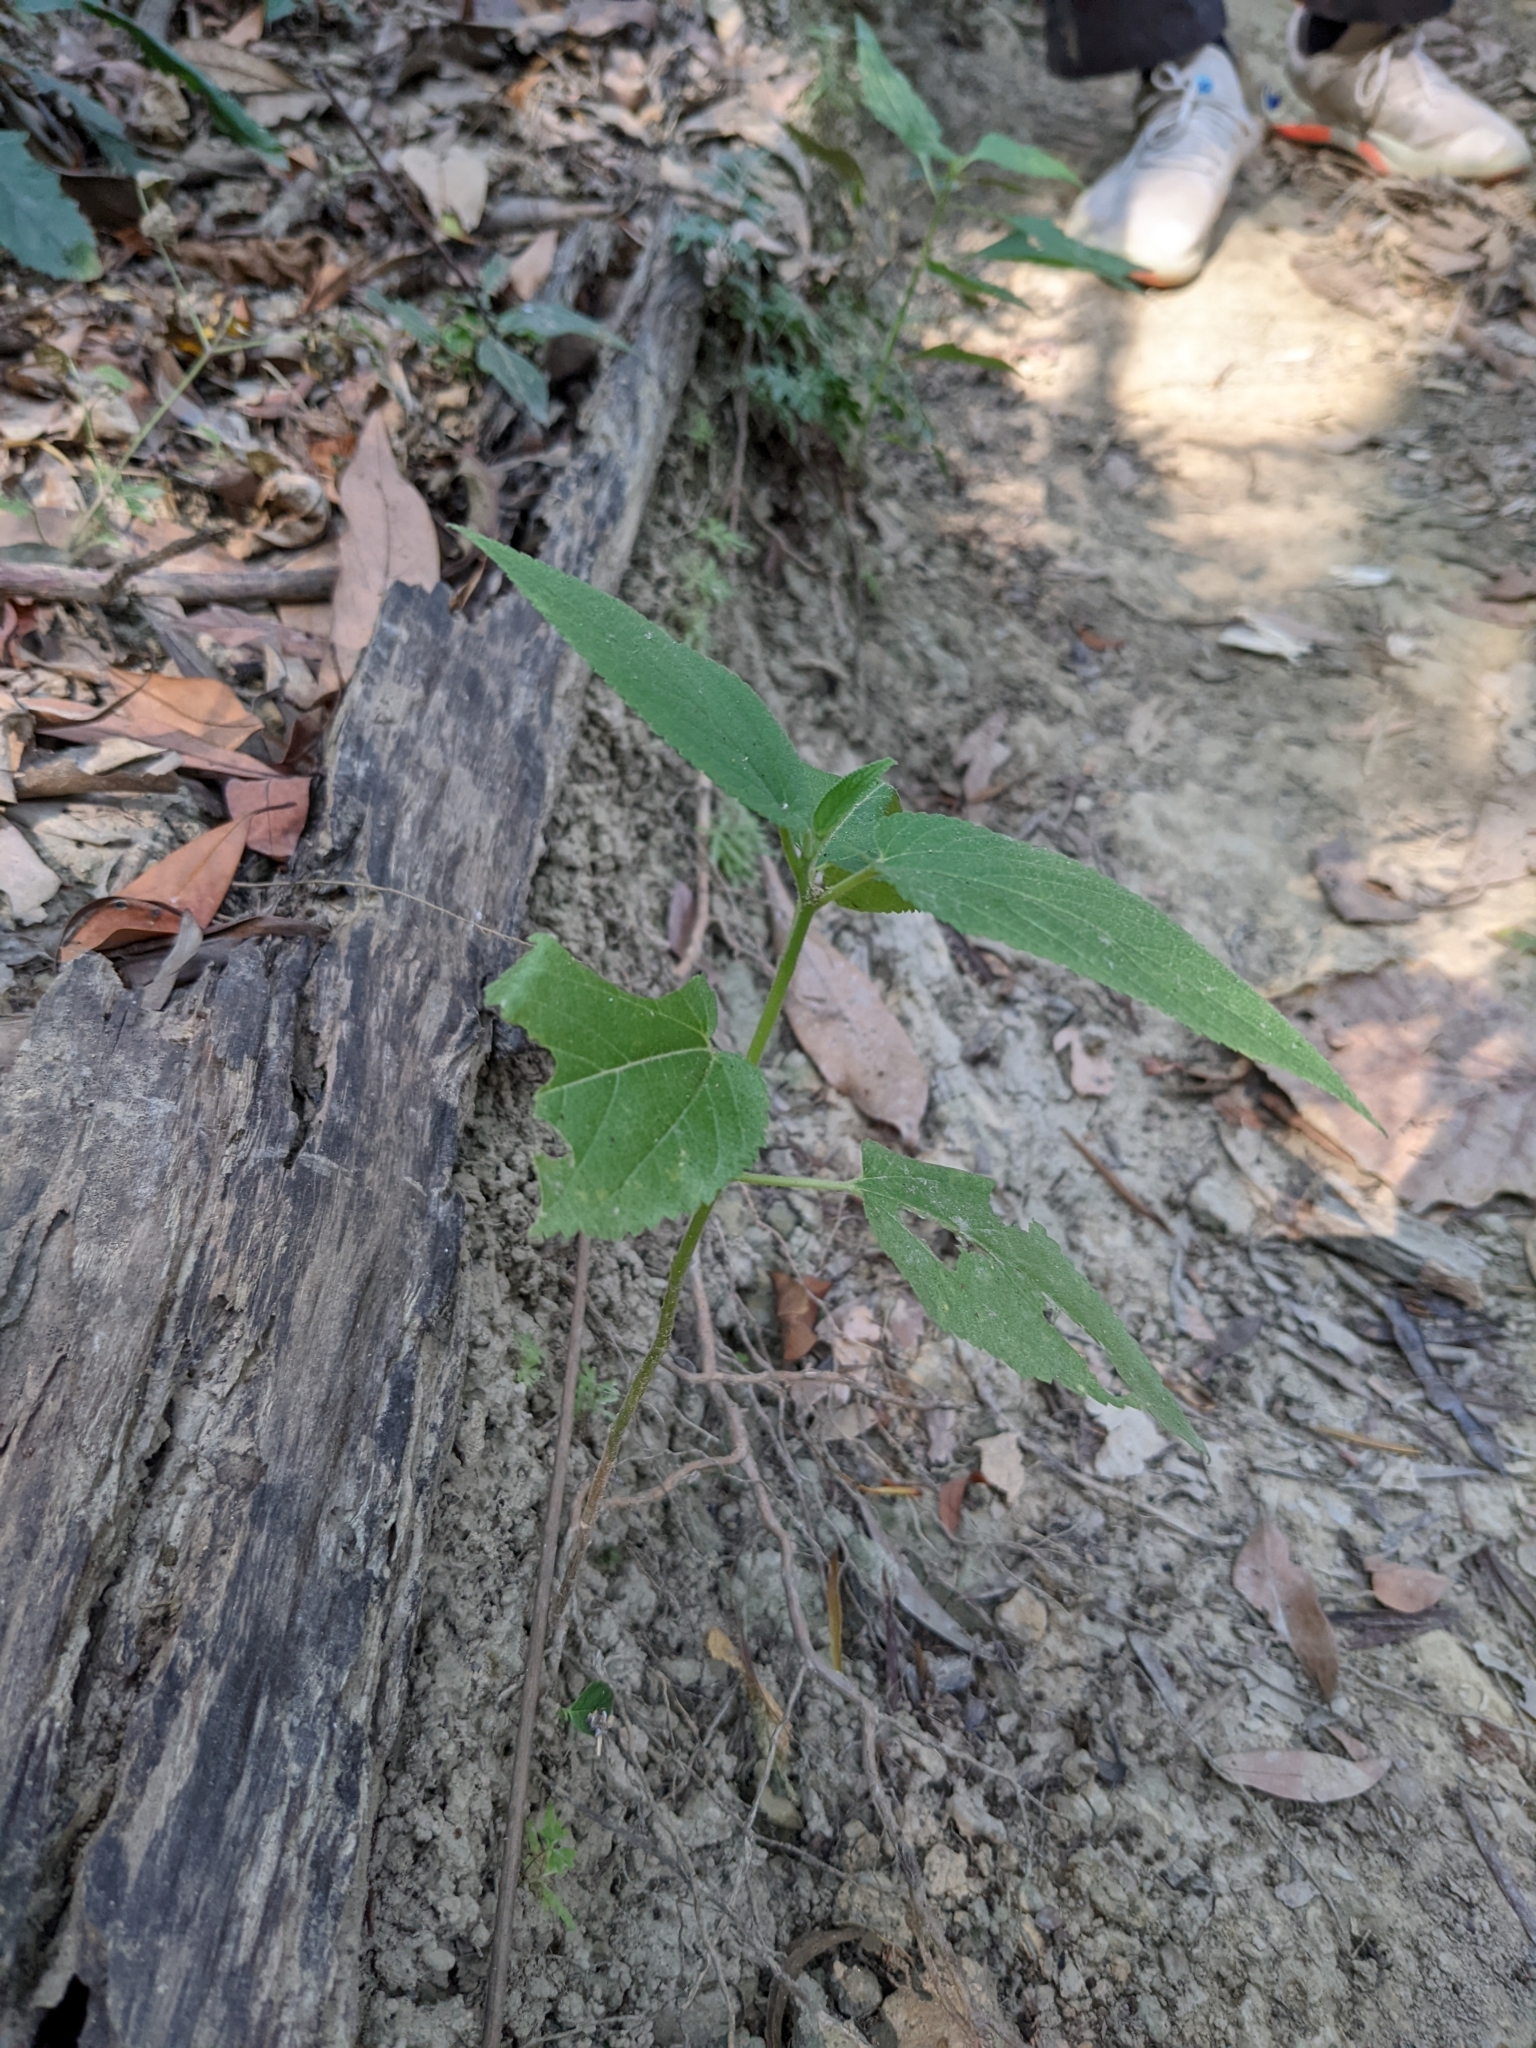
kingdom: Plantae
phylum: Tracheophyta
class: Magnoliopsida
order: Rosales
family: Cannabaceae
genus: Trema
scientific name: Trema orientale
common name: Indian charcoal tree
